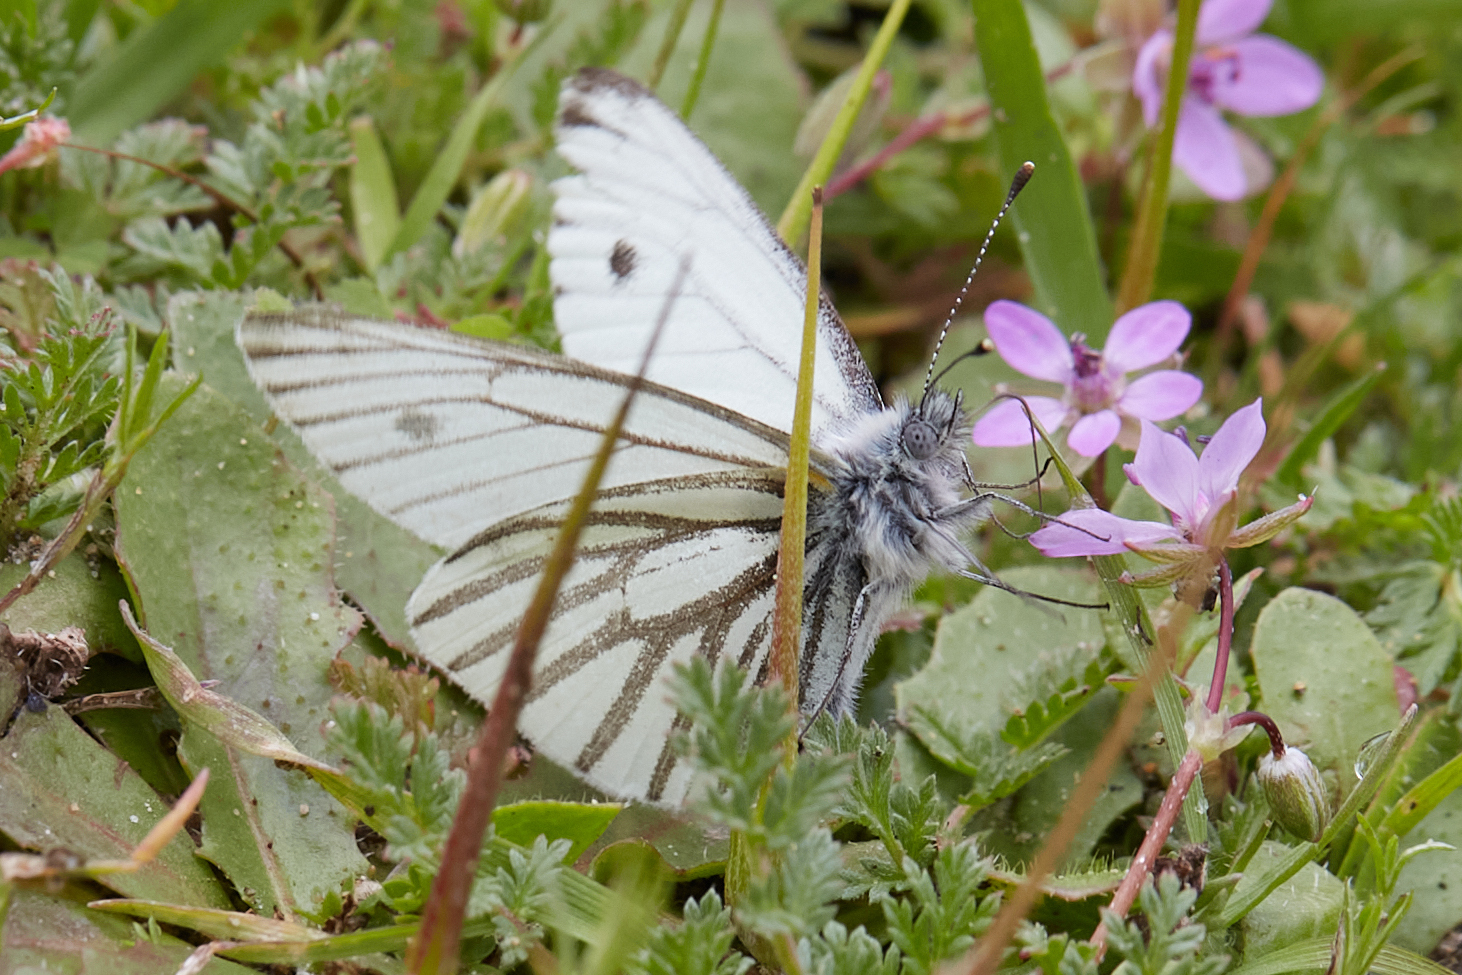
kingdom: Animalia
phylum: Arthropoda
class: Insecta
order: Lepidoptera
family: Pieridae
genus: Pieris
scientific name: Pieris marginalis
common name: Margined white
